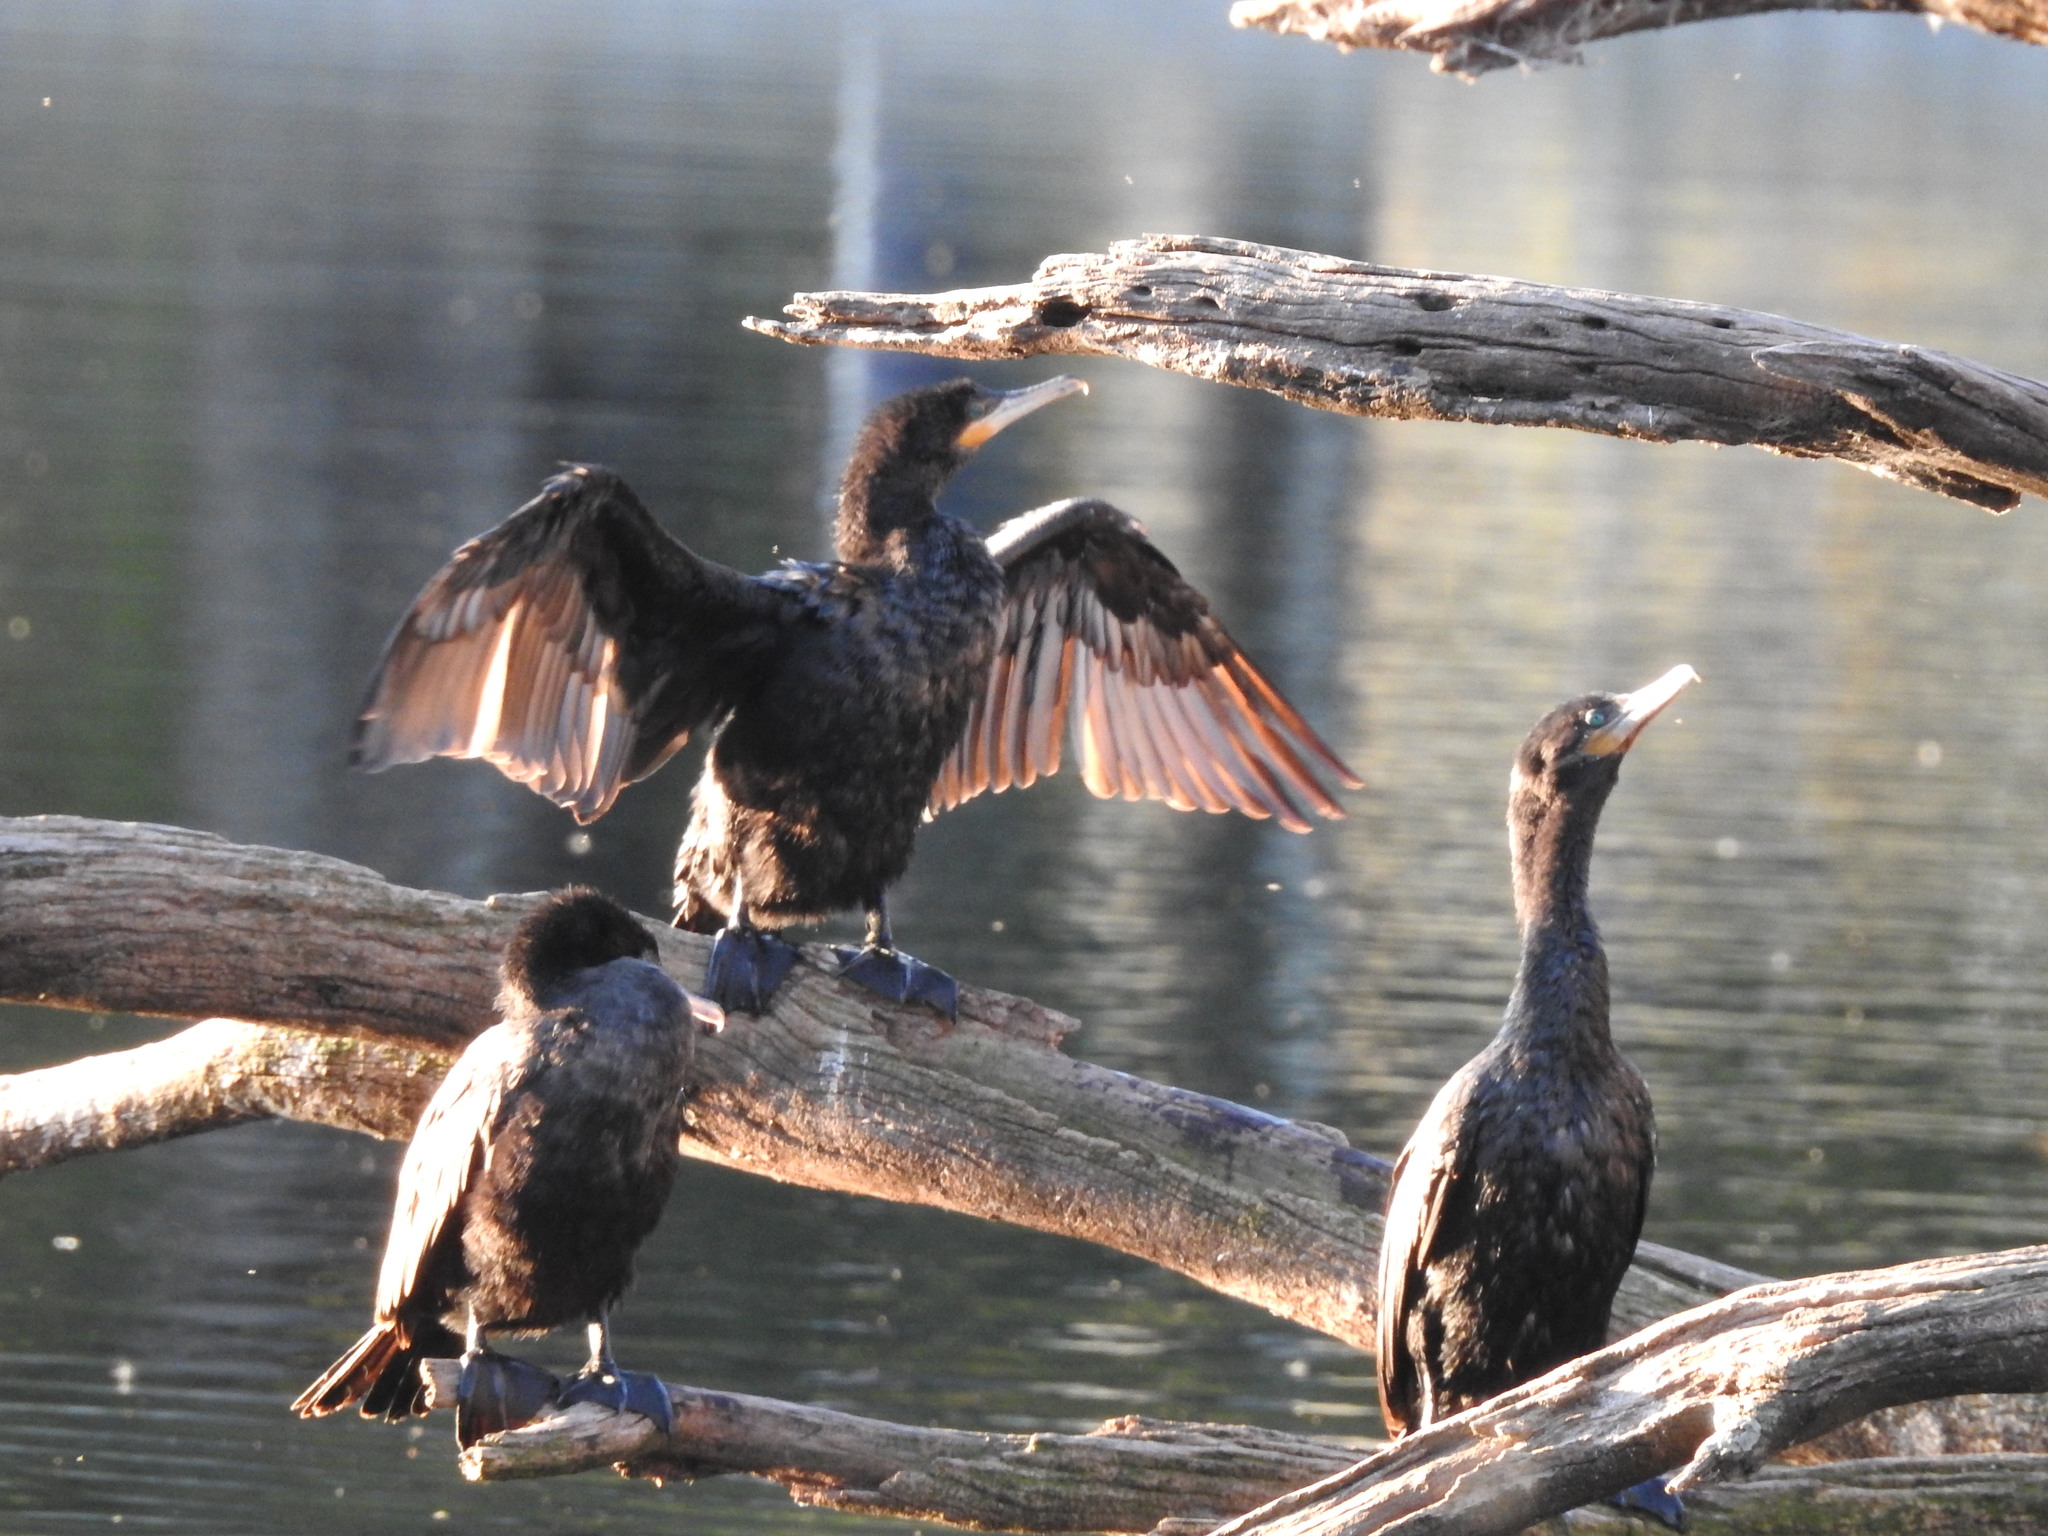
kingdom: Animalia
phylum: Chordata
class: Aves
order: Suliformes
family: Phalacrocoracidae
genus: Phalacrocorax
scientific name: Phalacrocorax brasilianus
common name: Neotropic cormorant
